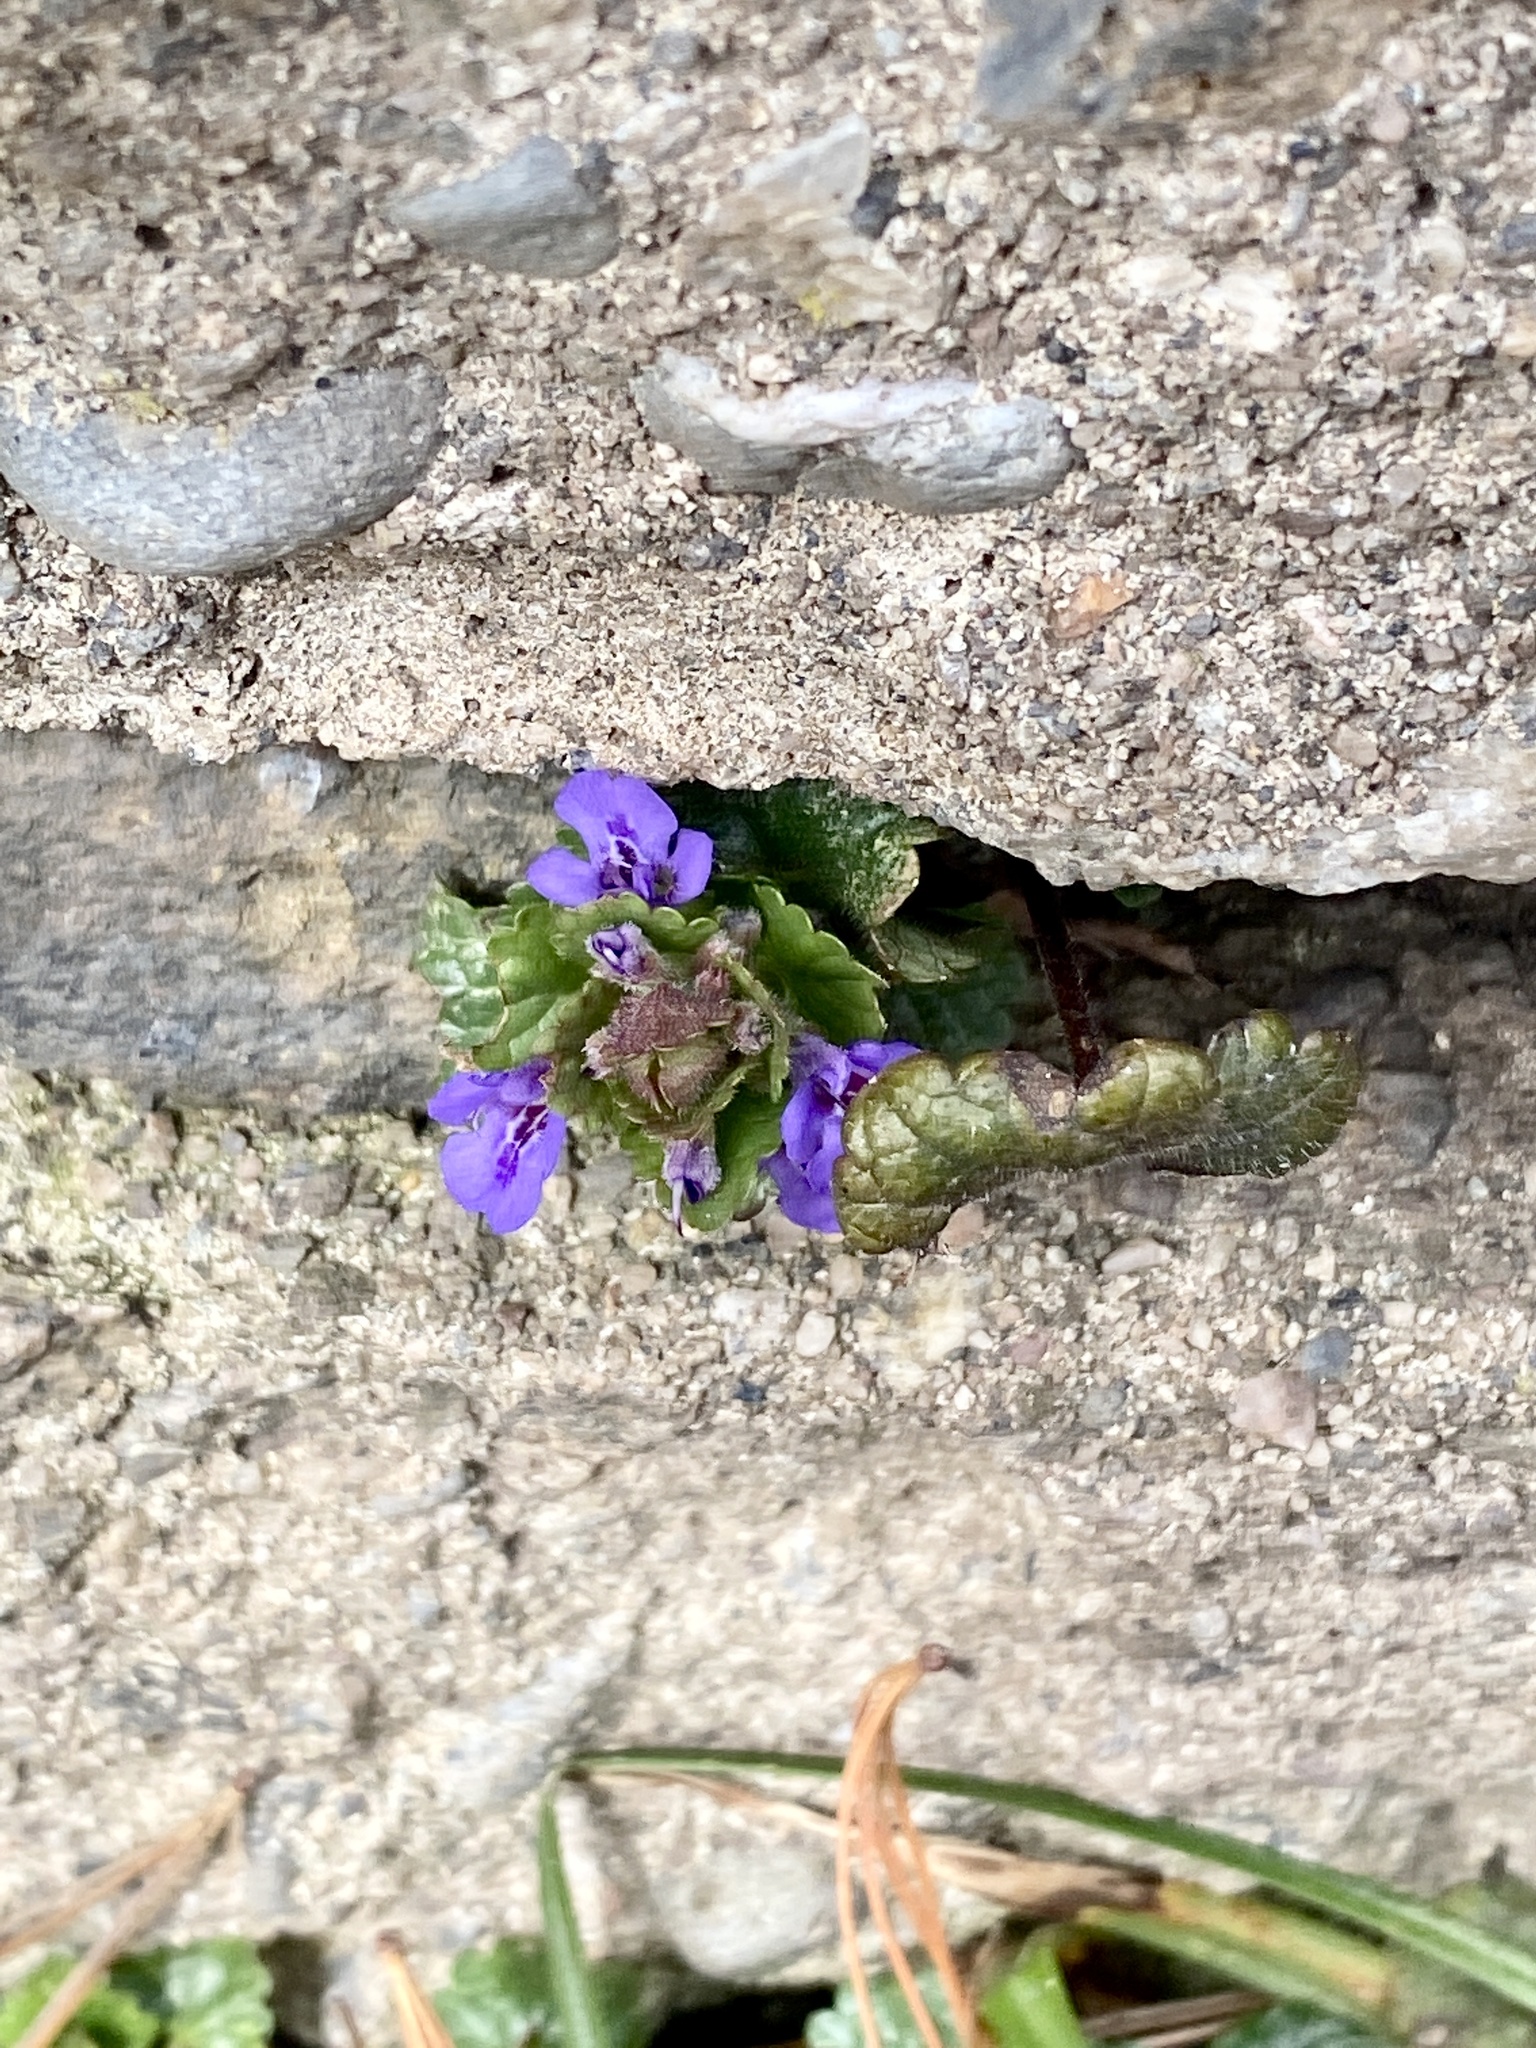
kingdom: Plantae
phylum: Tracheophyta
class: Magnoliopsida
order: Lamiales
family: Lamiaceae
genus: Glechoma
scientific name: Glechoma hederacea
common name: Ground ivy
